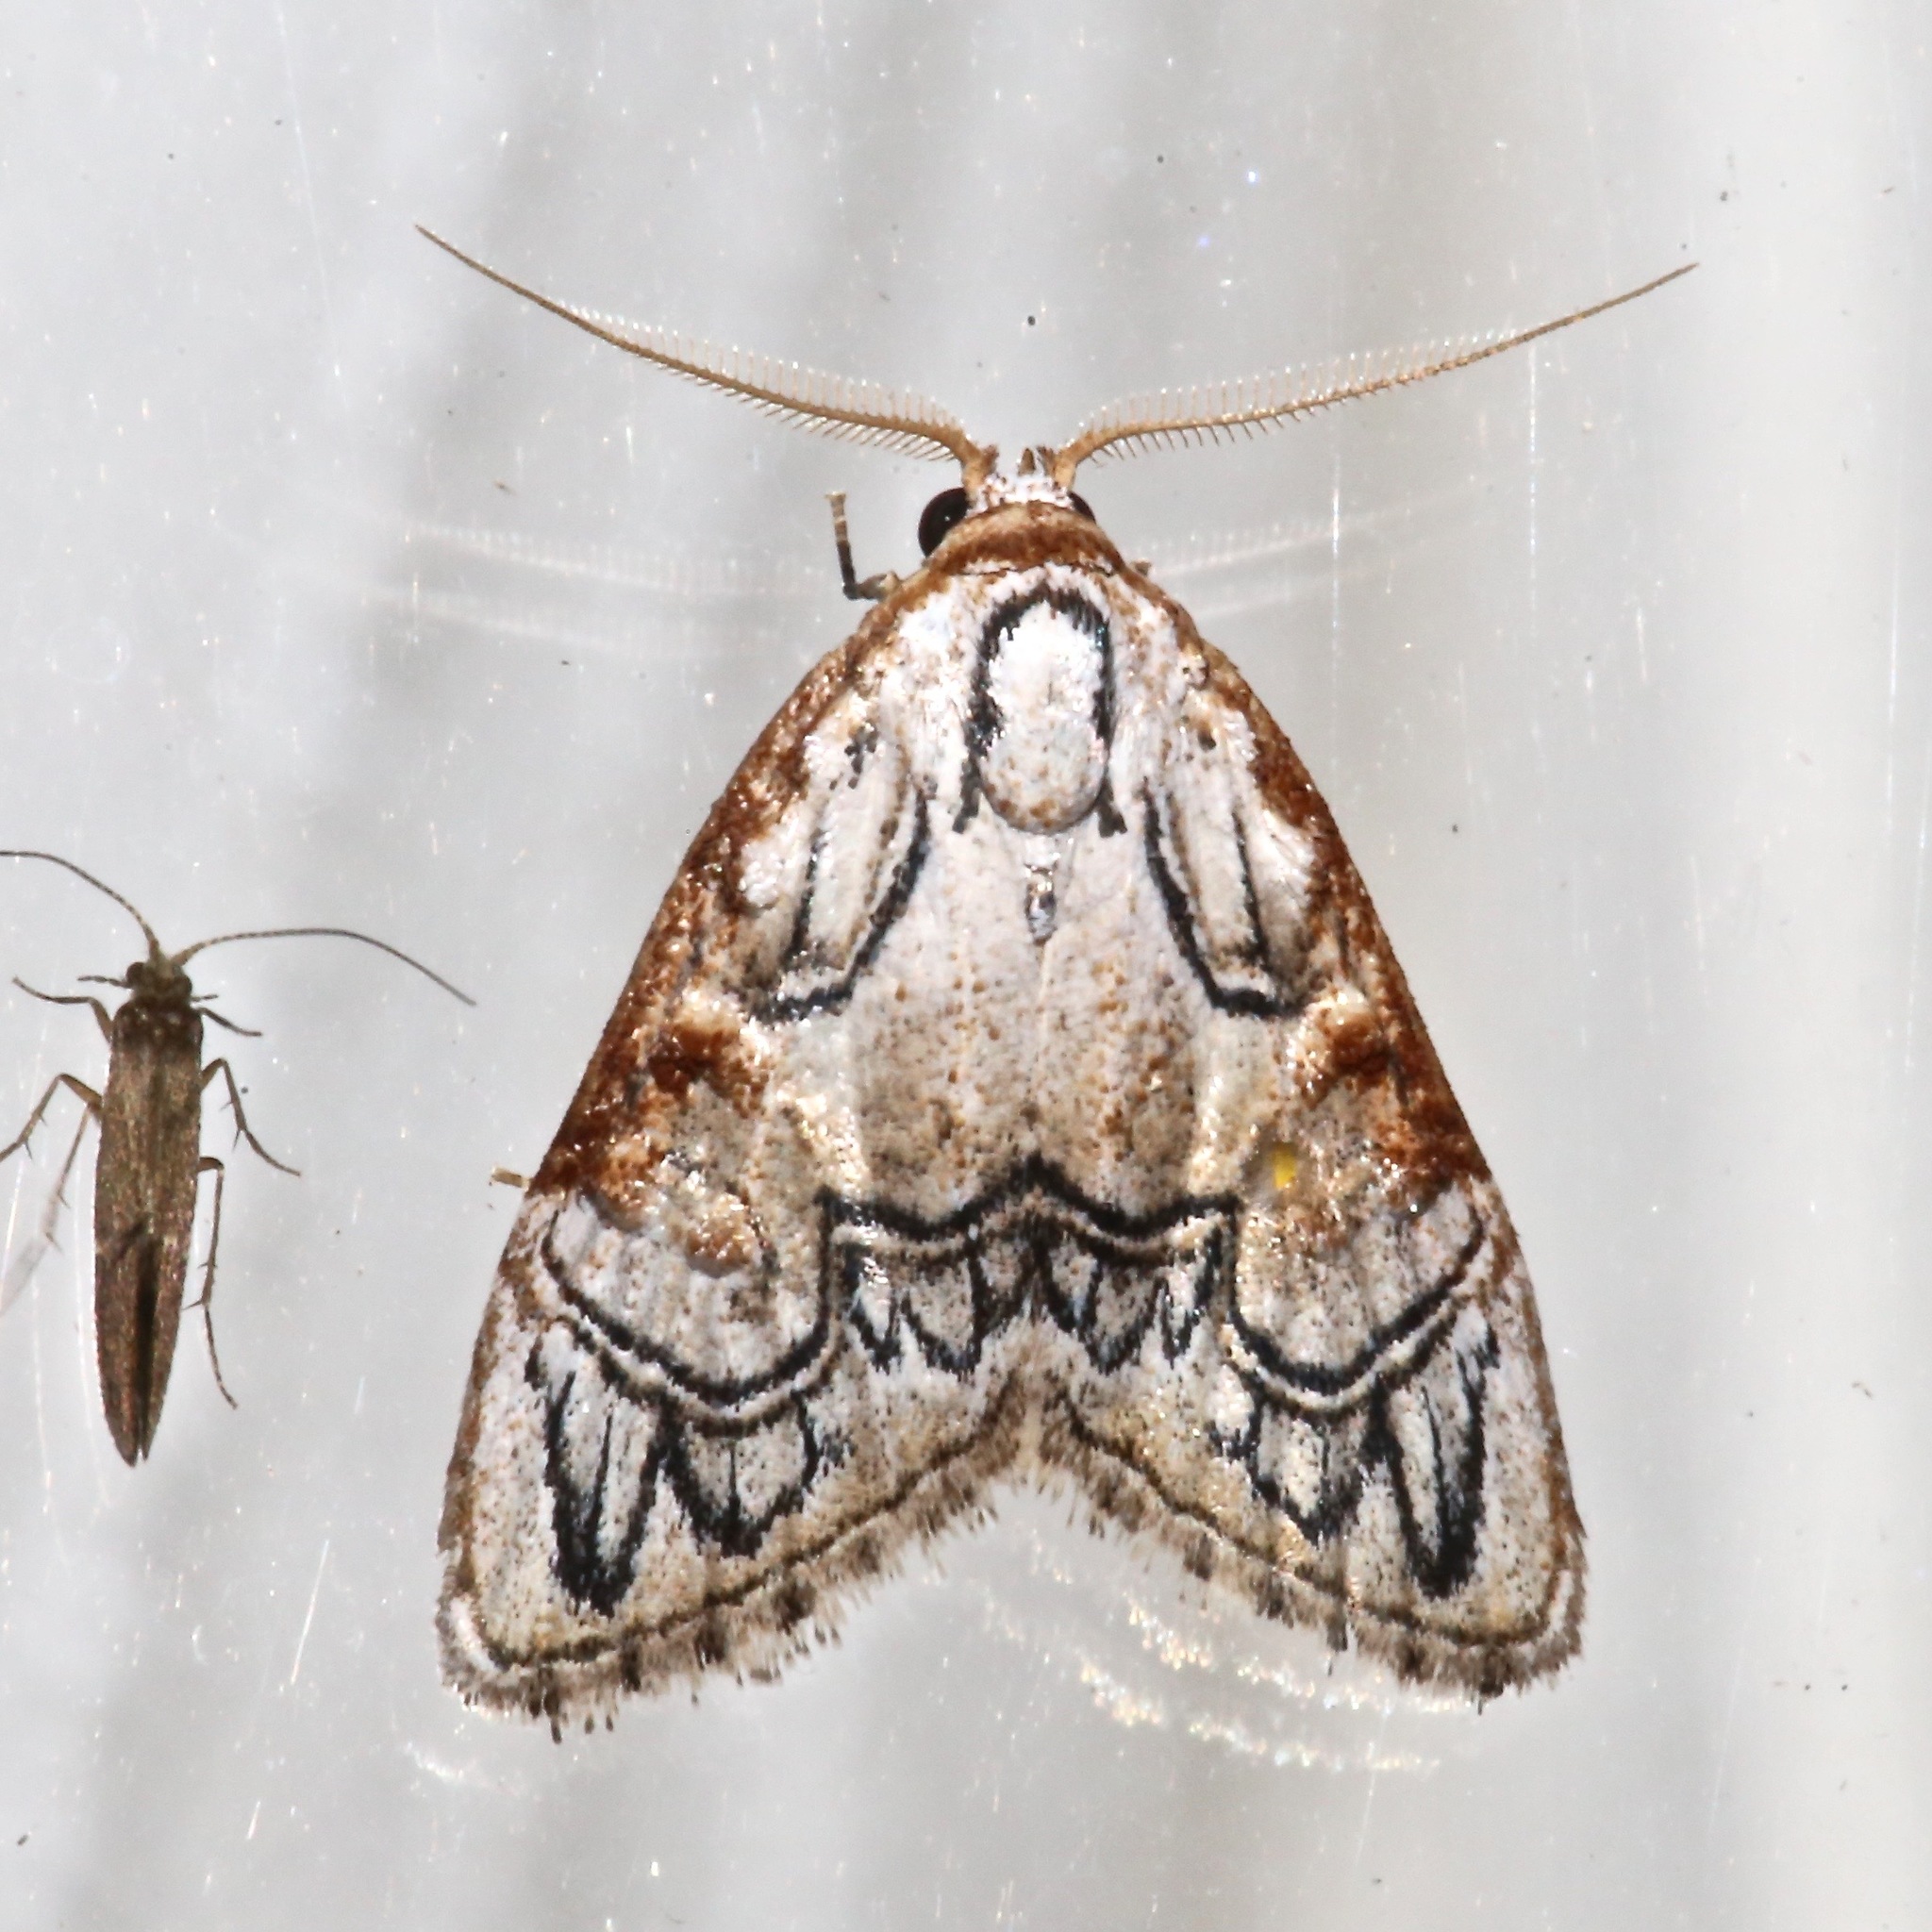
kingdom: Animalia
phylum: Arthropoda
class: Insecta
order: Lepidoptera
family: Nolidae
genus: Nola
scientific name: Nola bifiliferata
